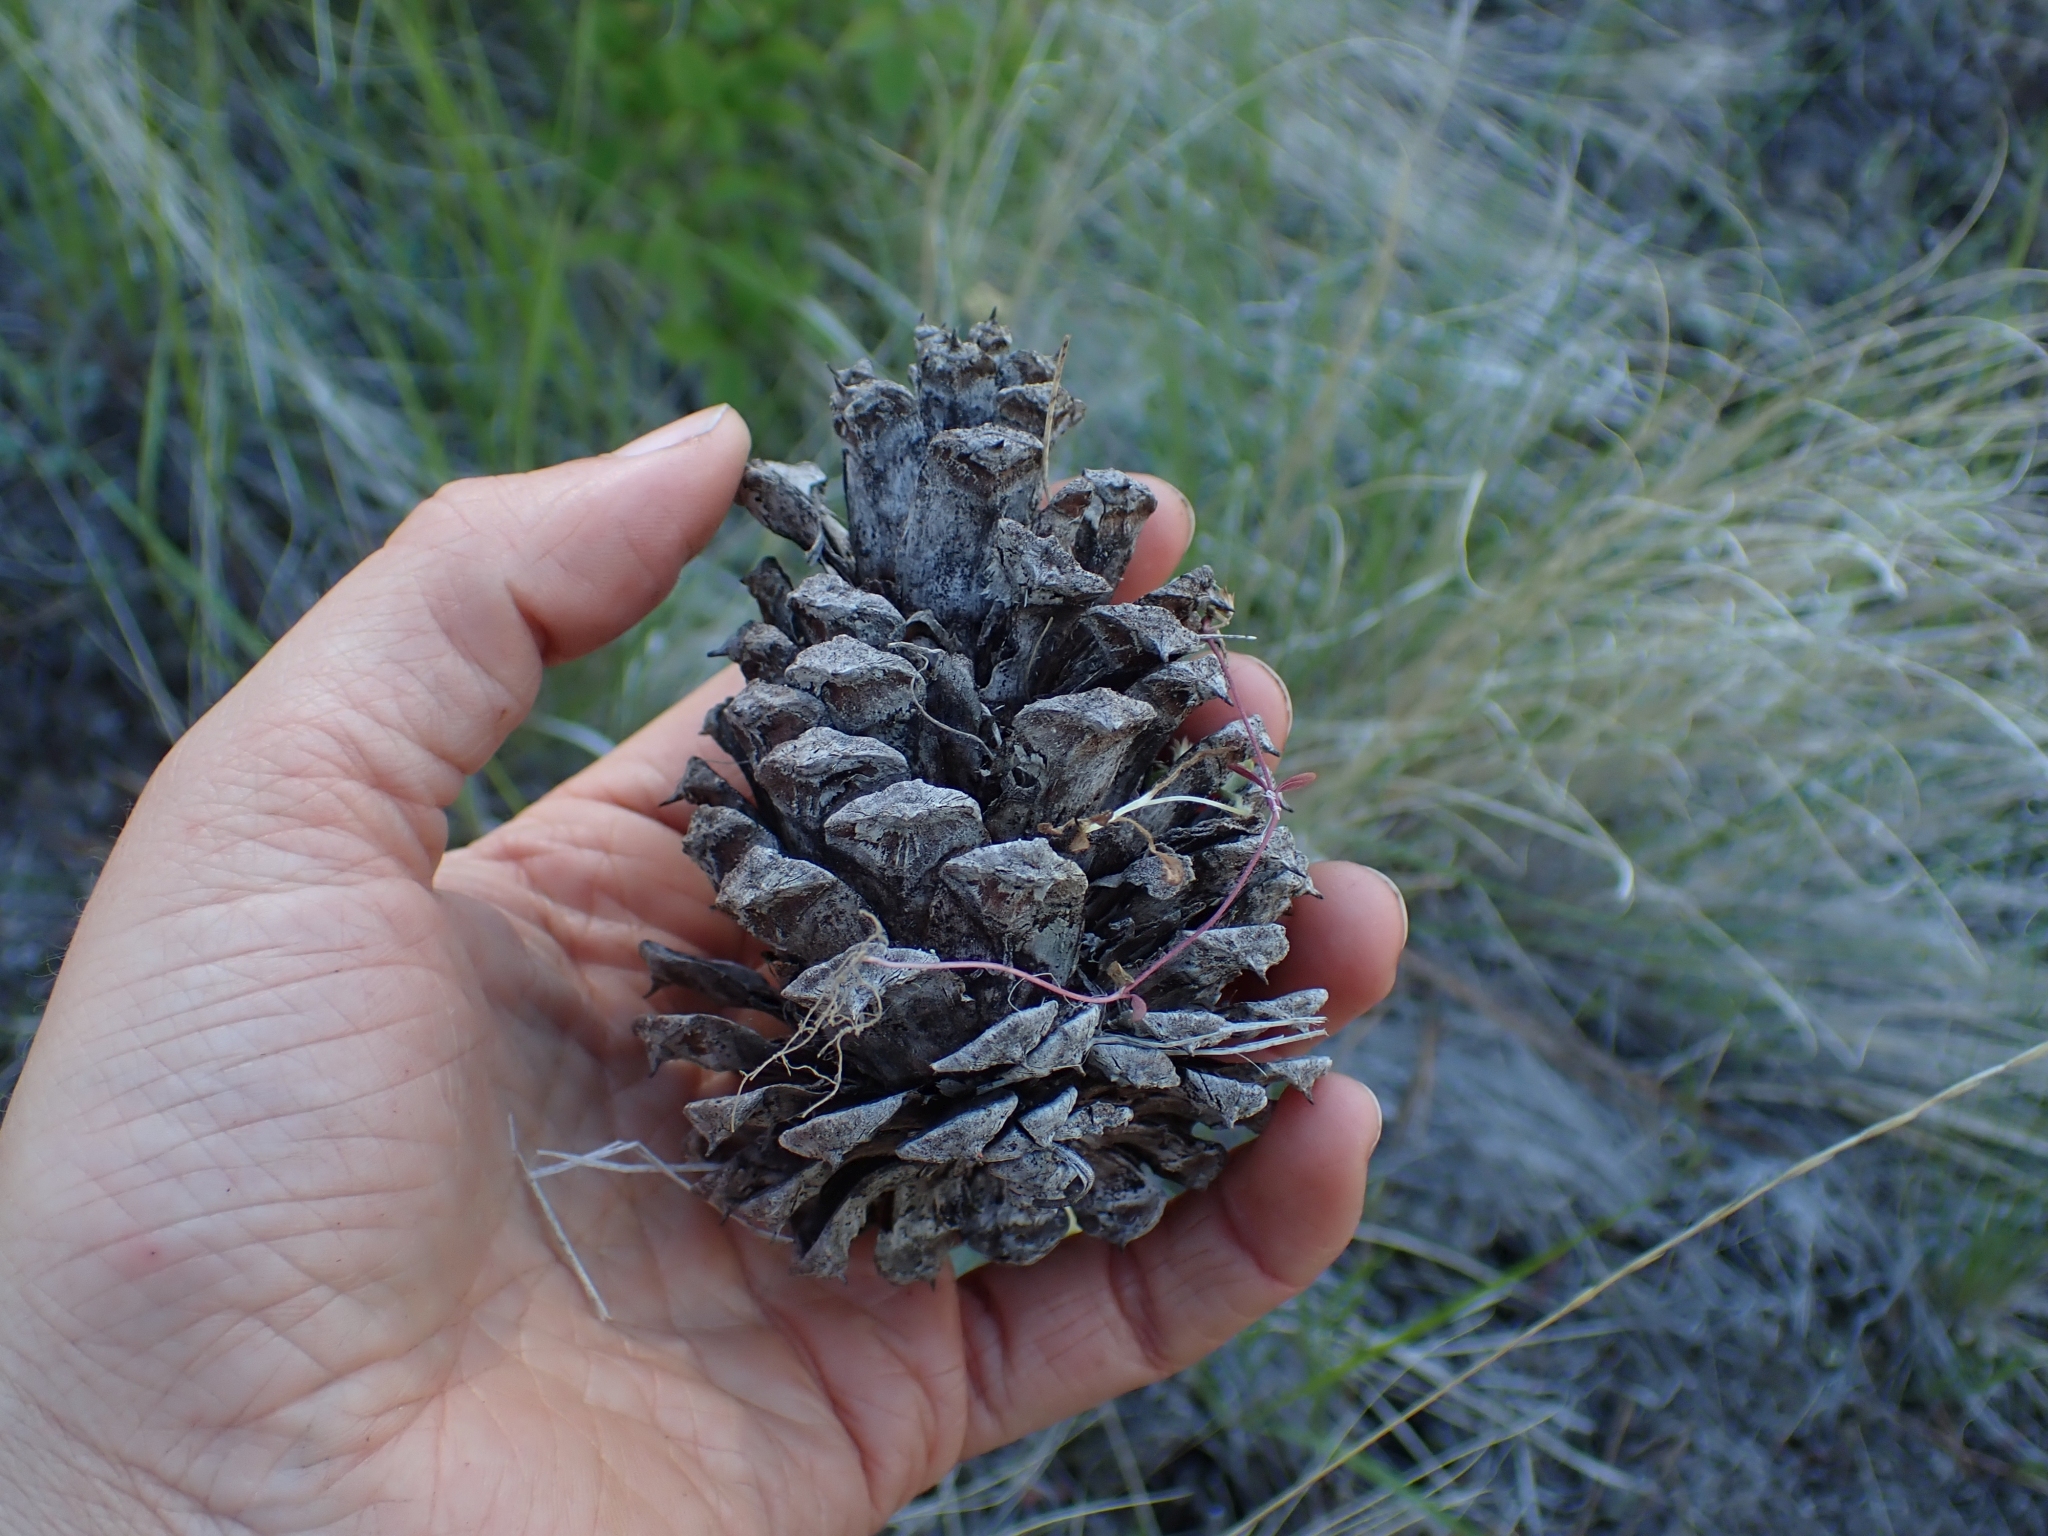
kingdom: Plantae
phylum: Tracheophyta
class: Pinopsida
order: Pinales
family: Pinaceae
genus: Pinus
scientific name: Pinus ponderosa
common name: Western yellow-pine
